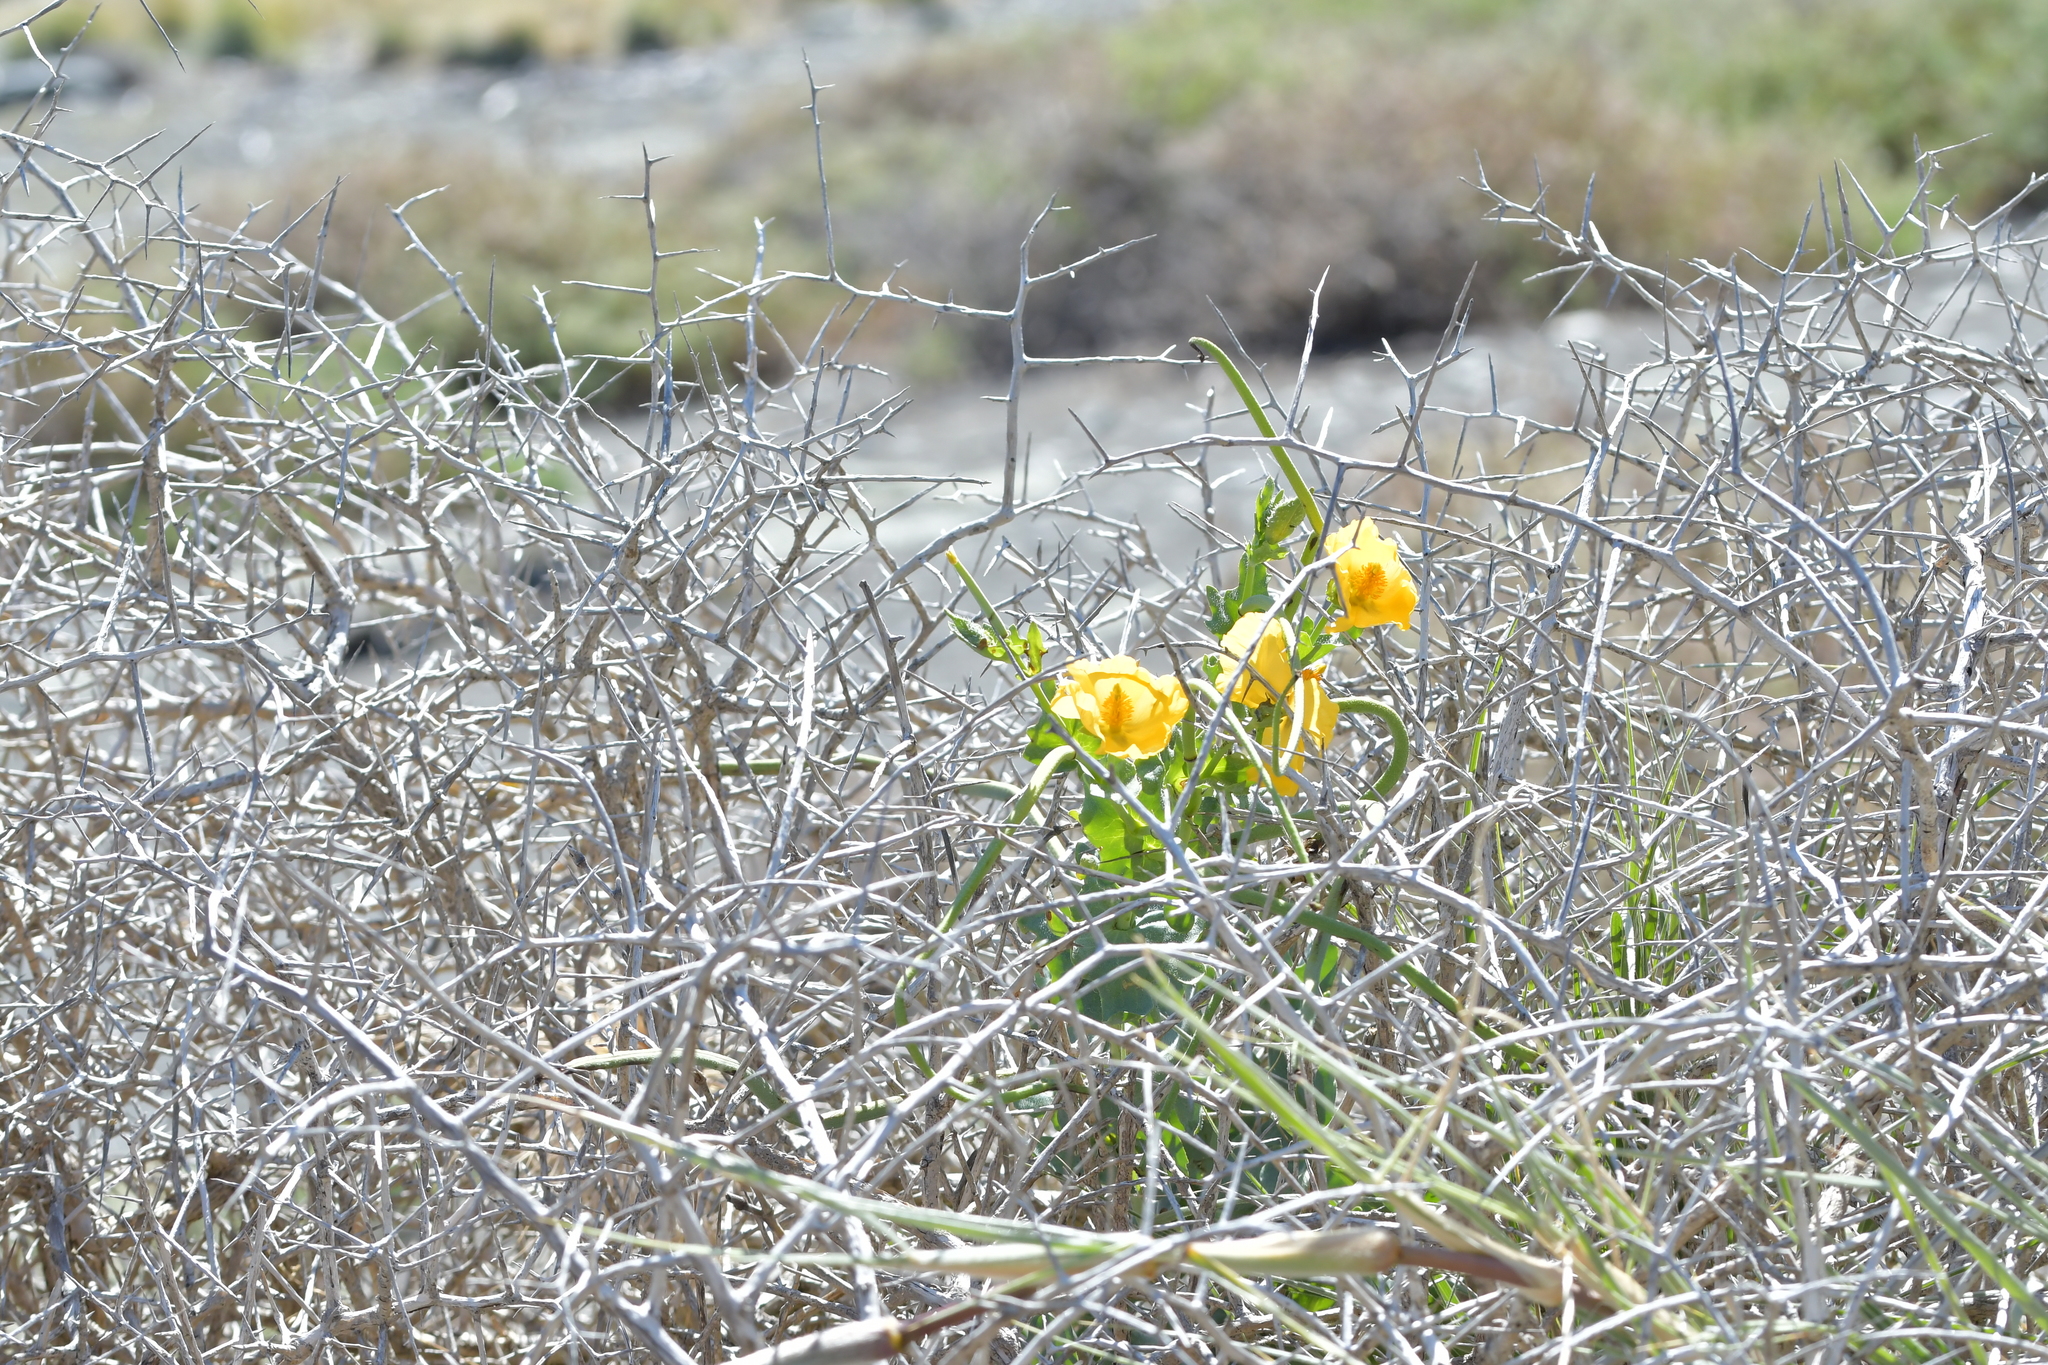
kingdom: Plantae
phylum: Tracheophyta
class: Magnoliopsida
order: Ranunculales
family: Papaveraceae
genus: Glaucium
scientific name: Glaucium flavum
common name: Yellow horned-poppy
